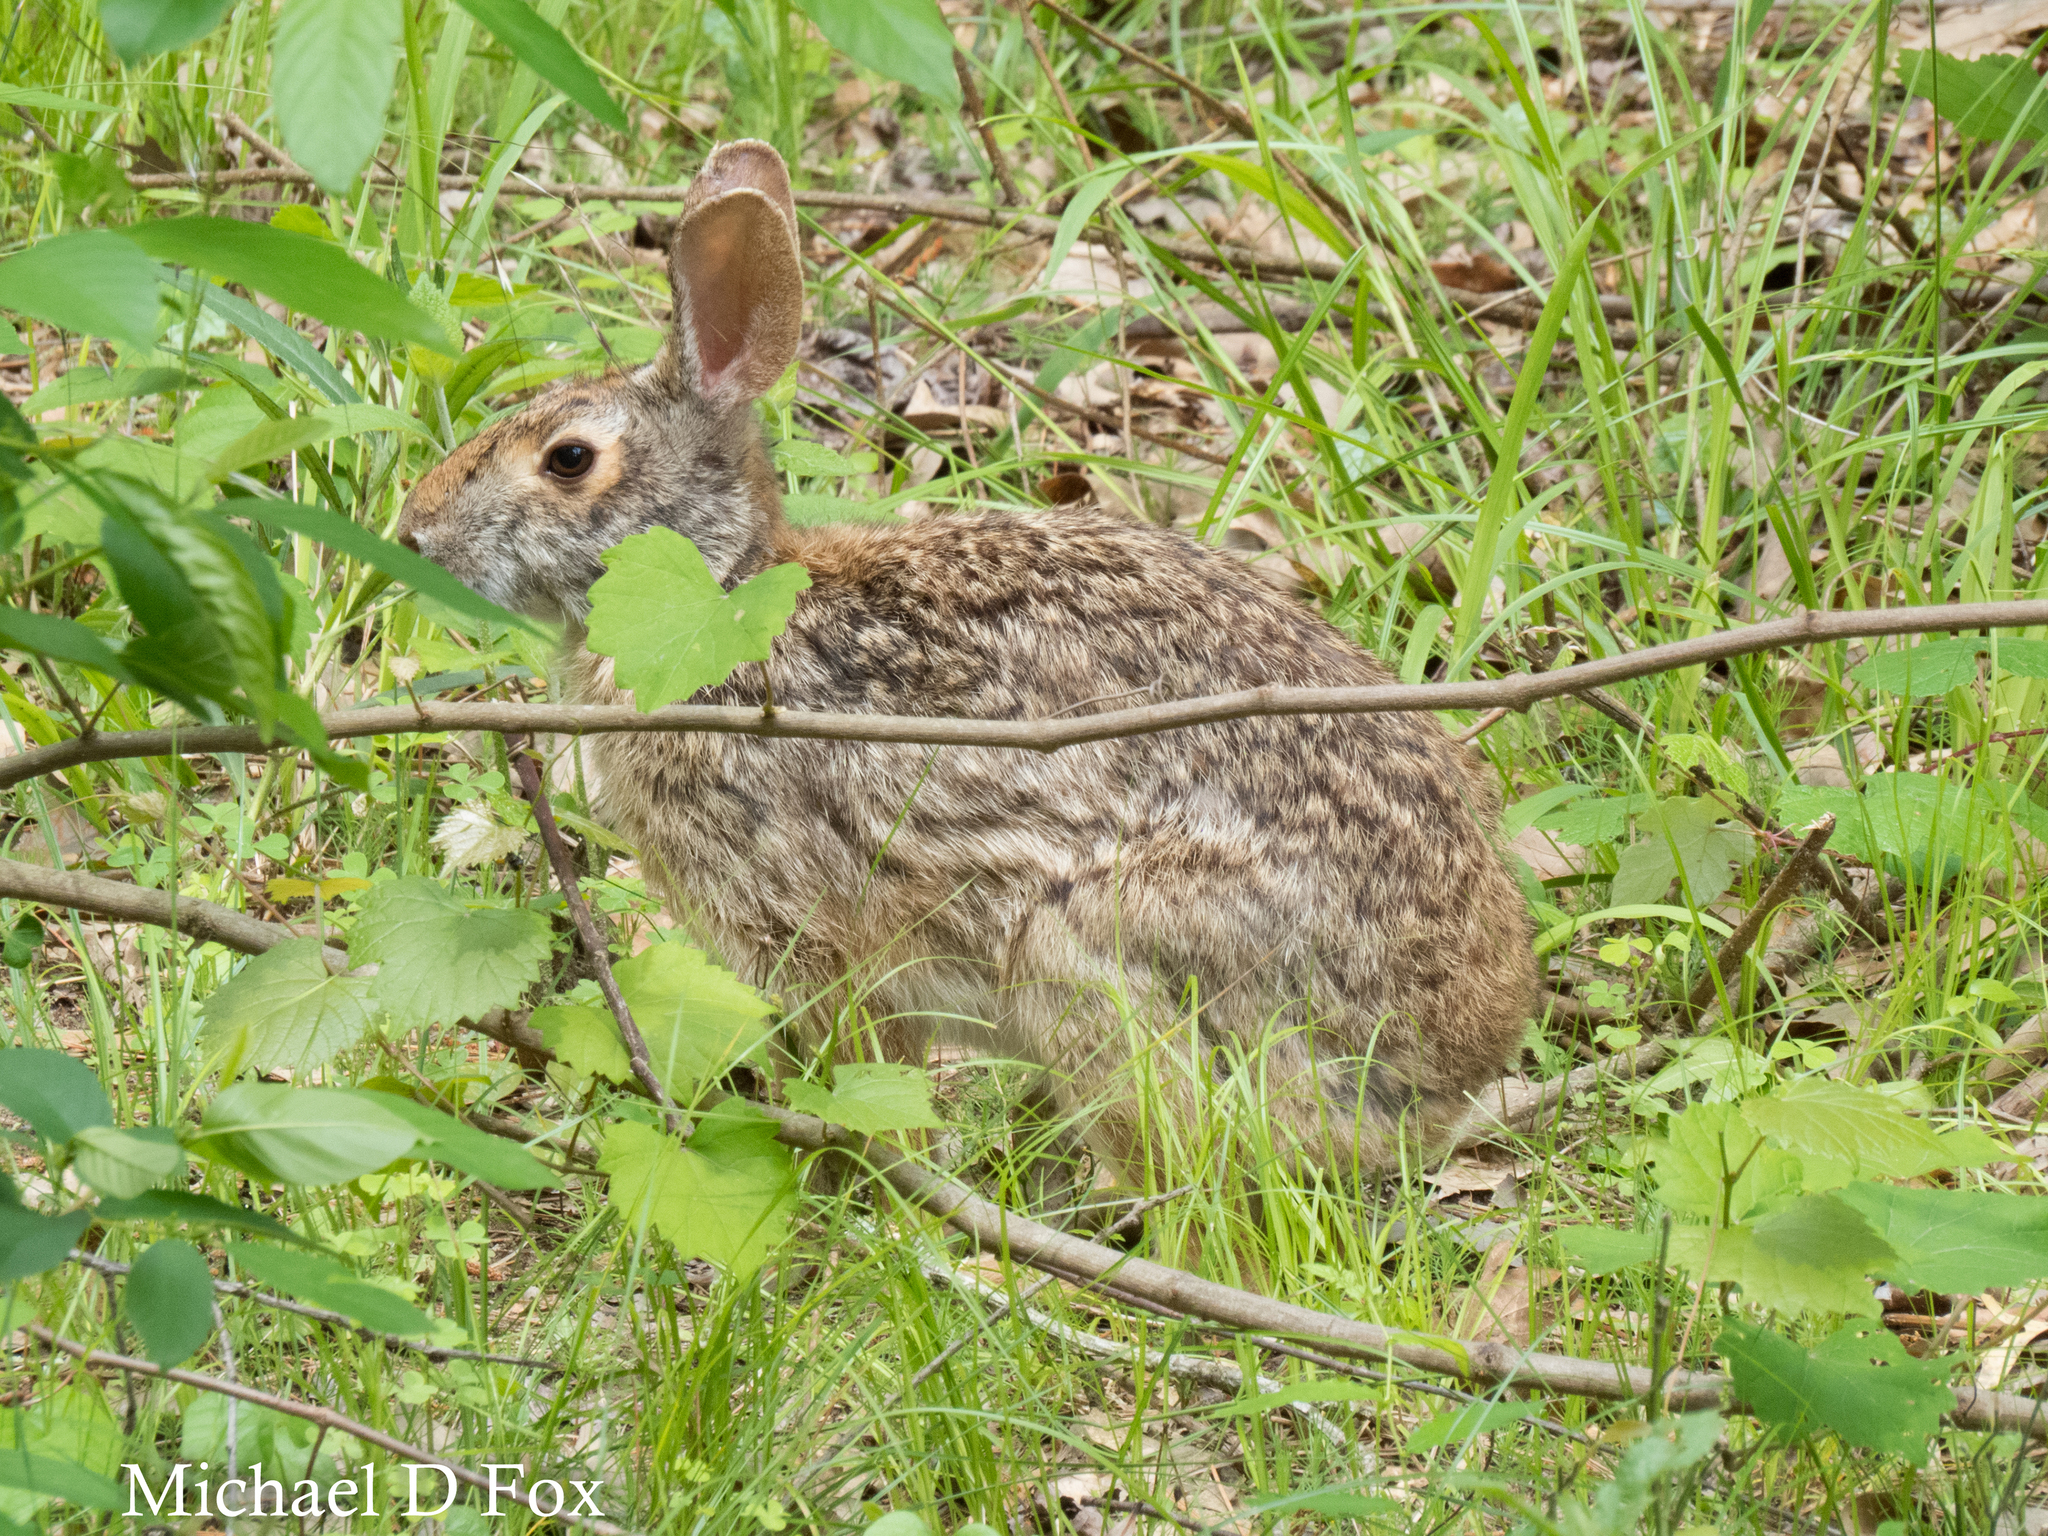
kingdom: Animalia
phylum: Chordata
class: Mammalia
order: Lagomorpha
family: Leporidae
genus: Sylvilagus
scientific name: Sylvilagus floridanus
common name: Eastern cottontail
